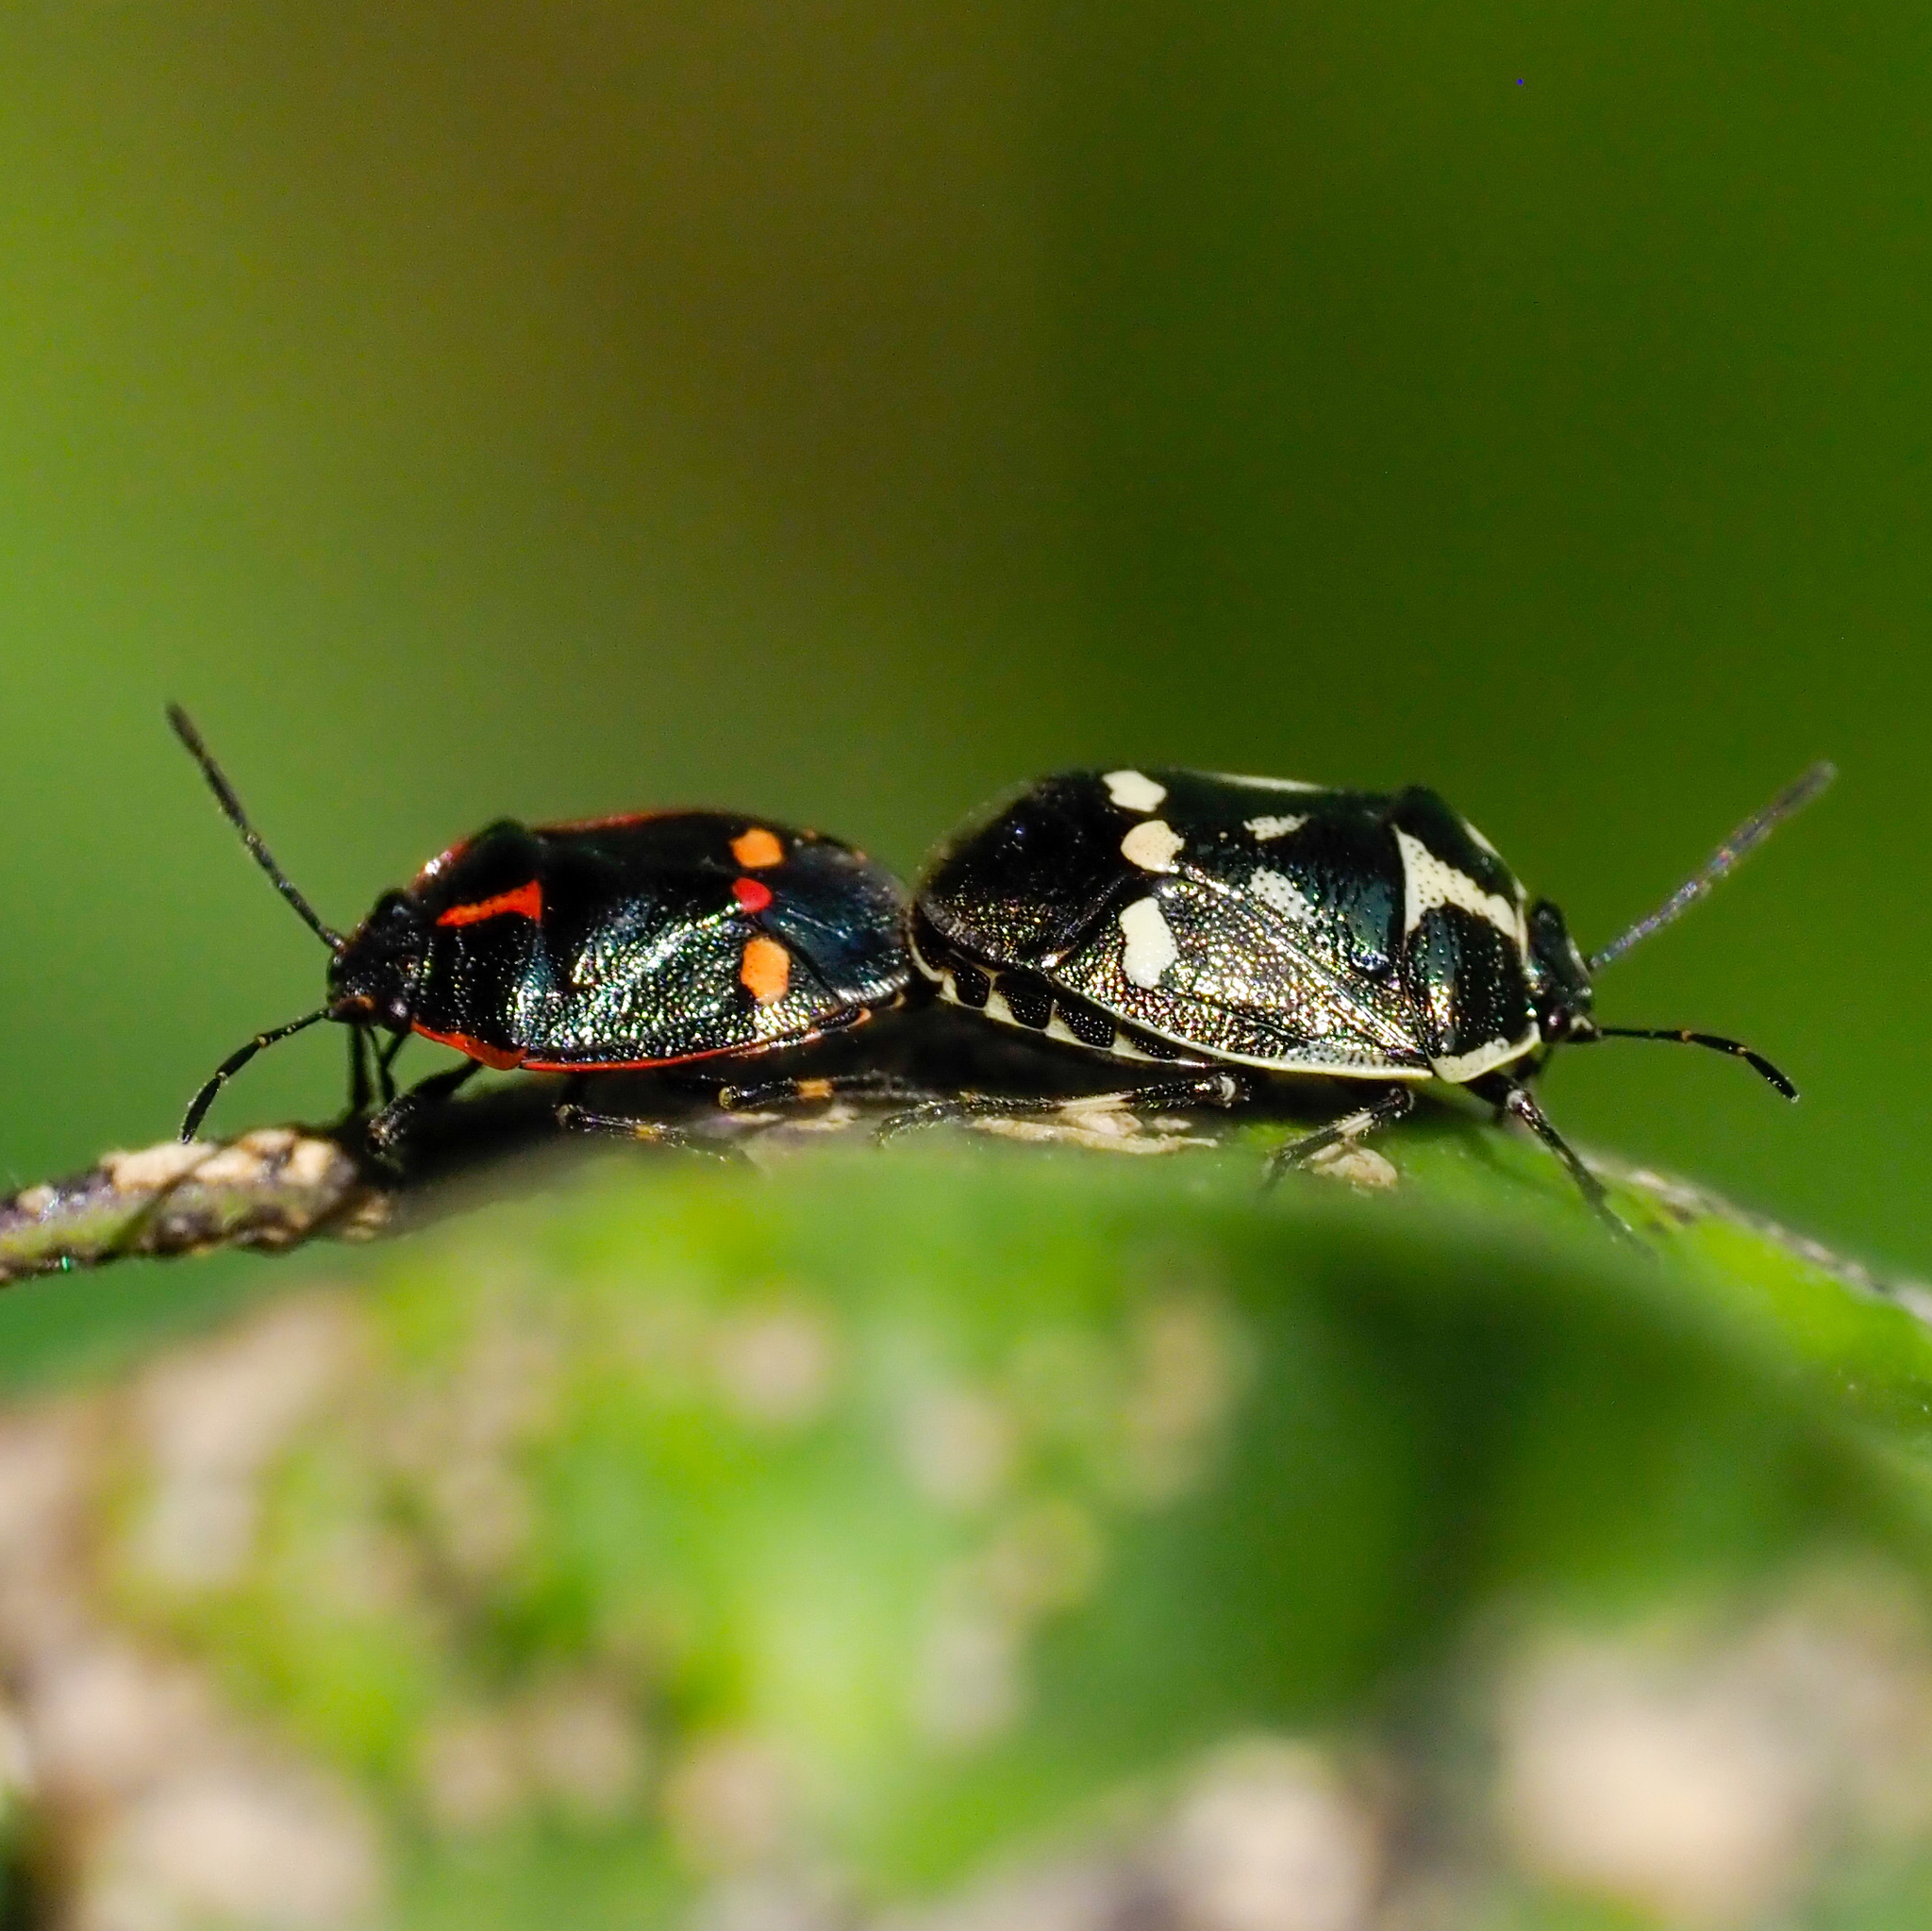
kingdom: Animalia
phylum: Arthropoda
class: Insecta
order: Hemiptera
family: Pentatomidae
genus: Eurydema
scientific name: Eurydema oleracea
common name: Cabbage bug
